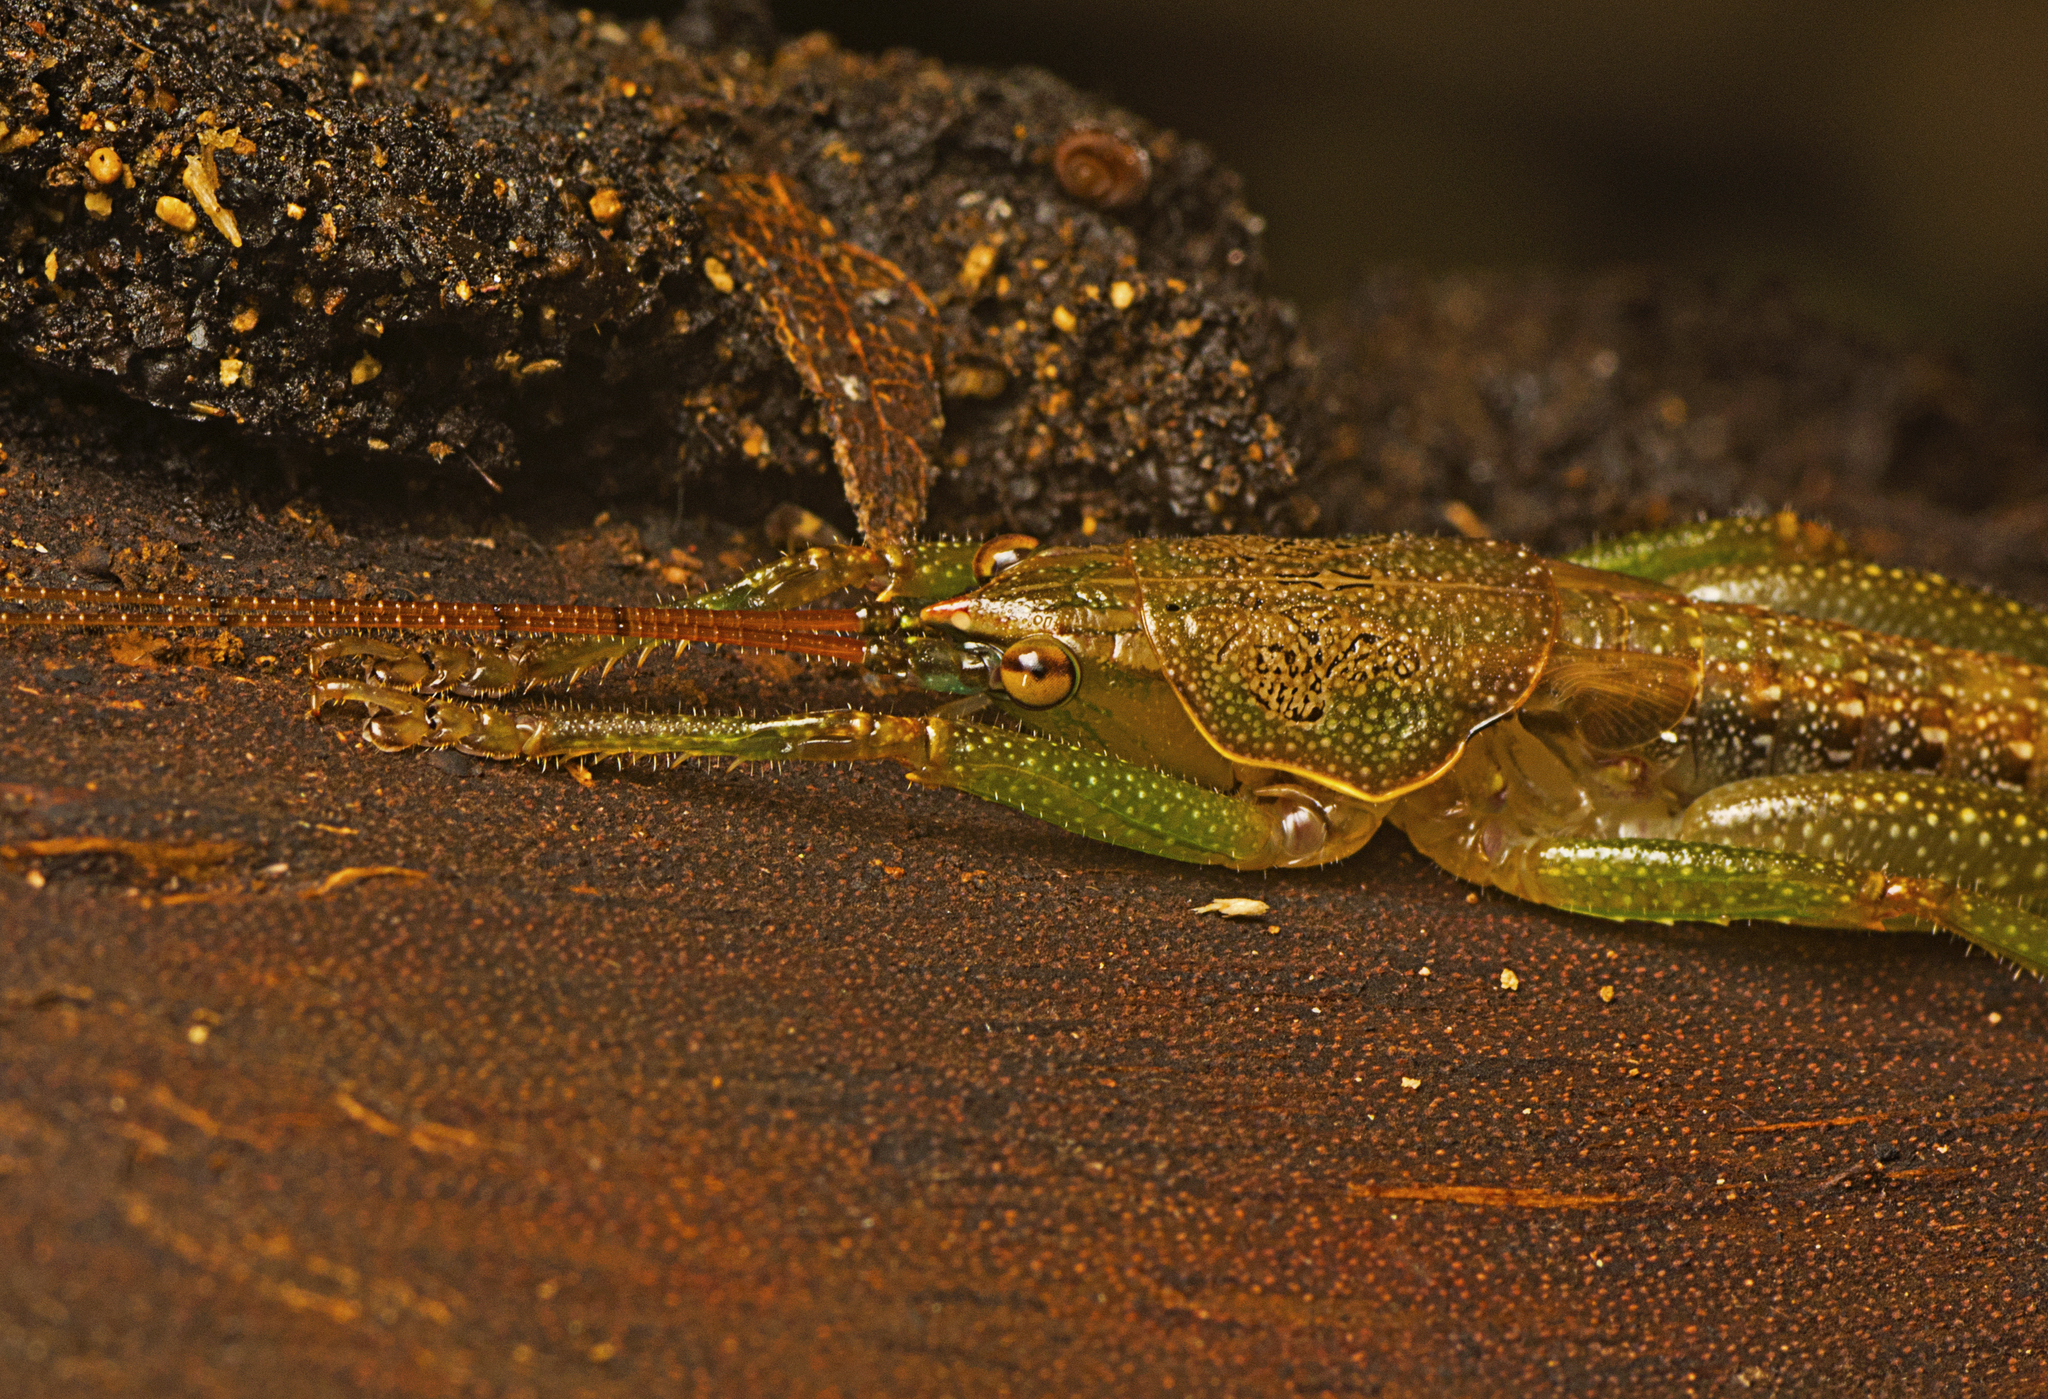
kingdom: Animalia
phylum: Arthropoda
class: Insecta
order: Orthoptera
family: Tettigoniidae
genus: Austrosalomona
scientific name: Austrosalomona falcata
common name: Olive-green coastal katydid
